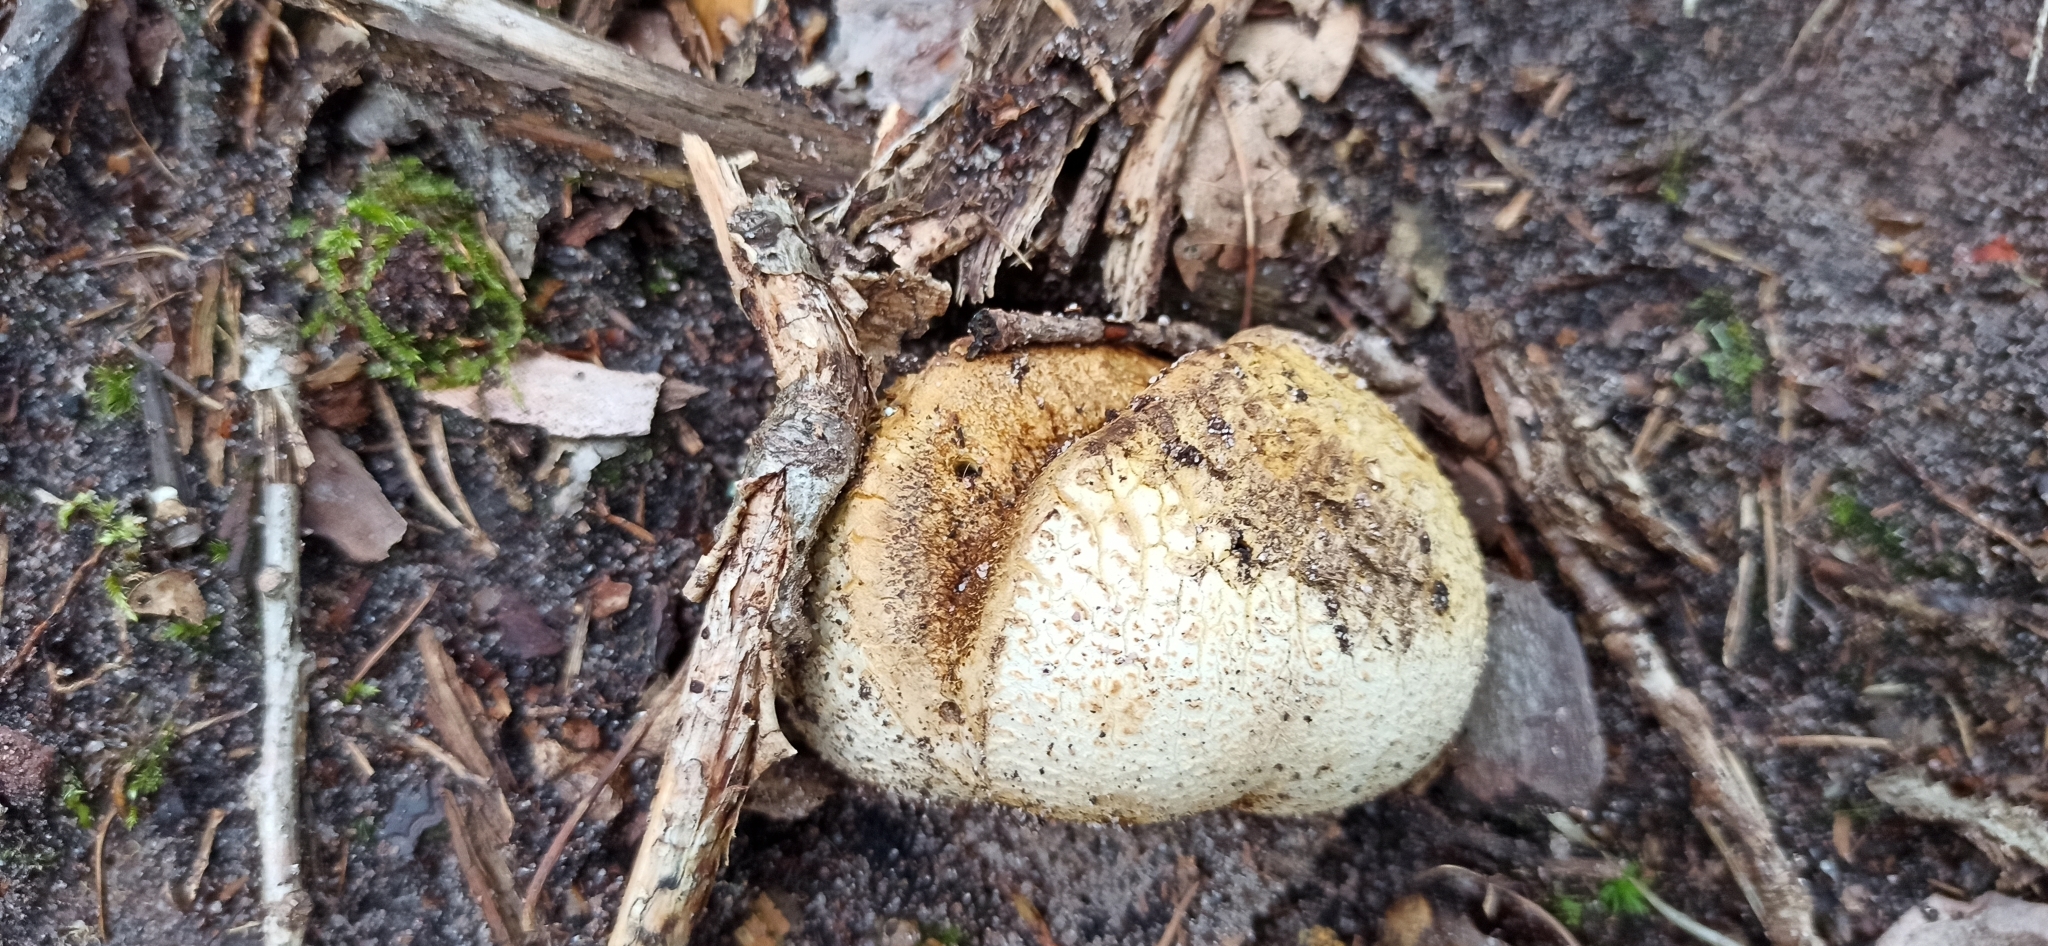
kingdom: Fungi
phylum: Basidiomycota
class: Agaricomycetes
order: Boletales
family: Sclerodermataceae
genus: Scleroderma
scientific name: Scleroderma citrinum
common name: Common earthball
